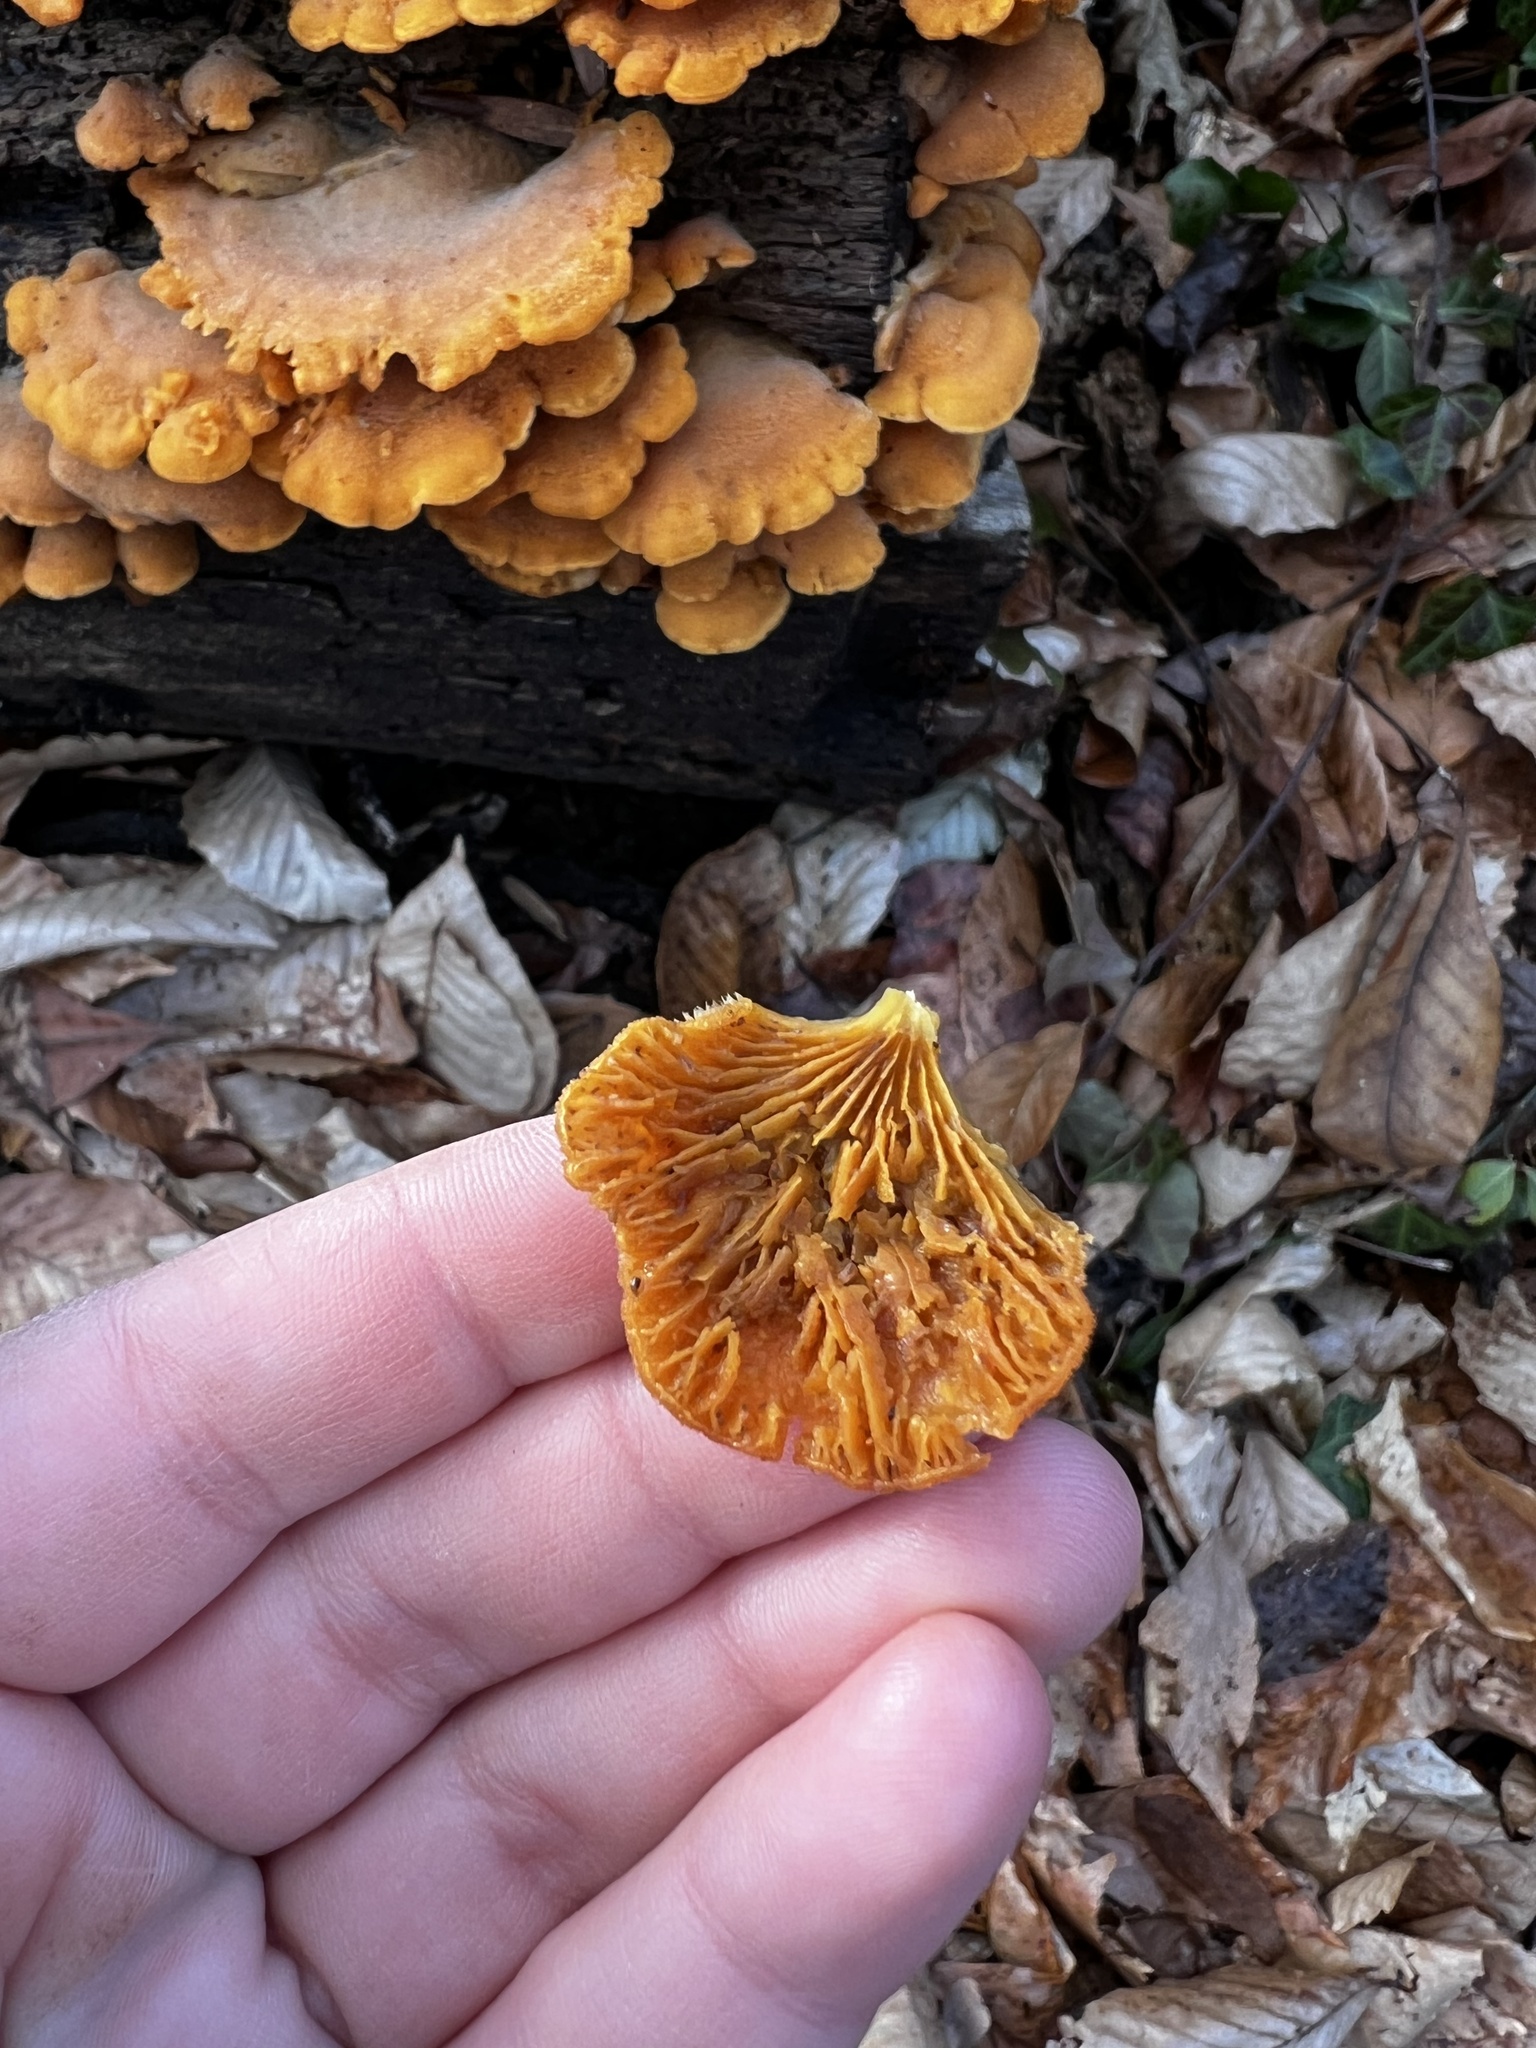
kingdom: Fungi
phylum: Basidiomycota
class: Agaricomycetes
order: Agaricales
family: Phyllotopsidaceae
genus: Phyllotopsis
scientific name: Phyllotopsis nidulans
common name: Orange mock oyster
